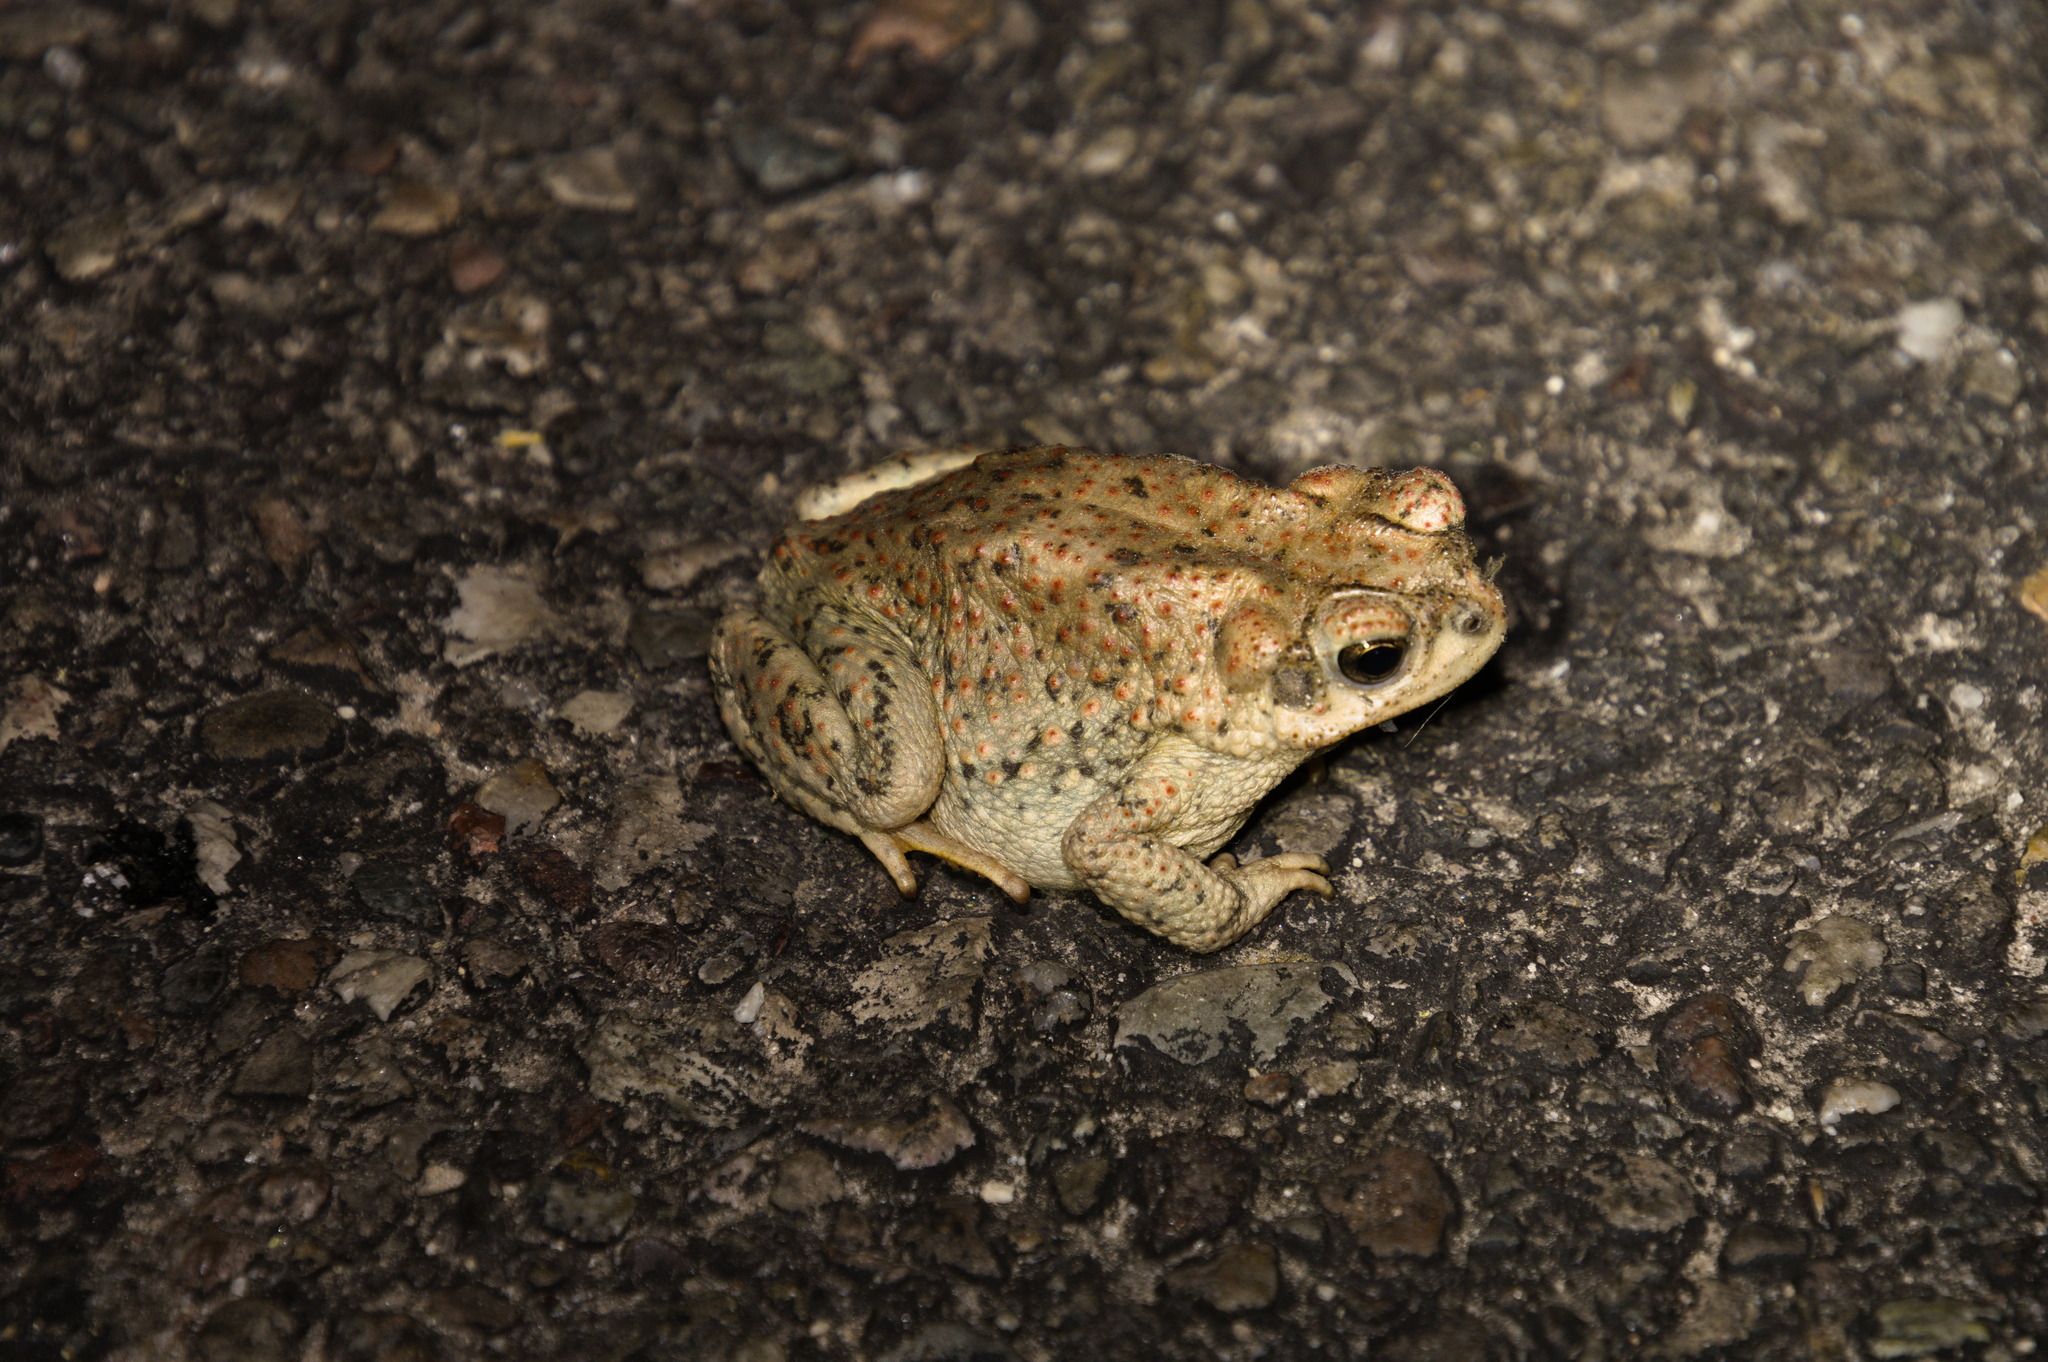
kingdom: Animalia
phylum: Chordata
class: Amphibia
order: Anura
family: Bufonidae
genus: Anaxyrus
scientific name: Anaxyrus punctatus
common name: Red-spotted toad
